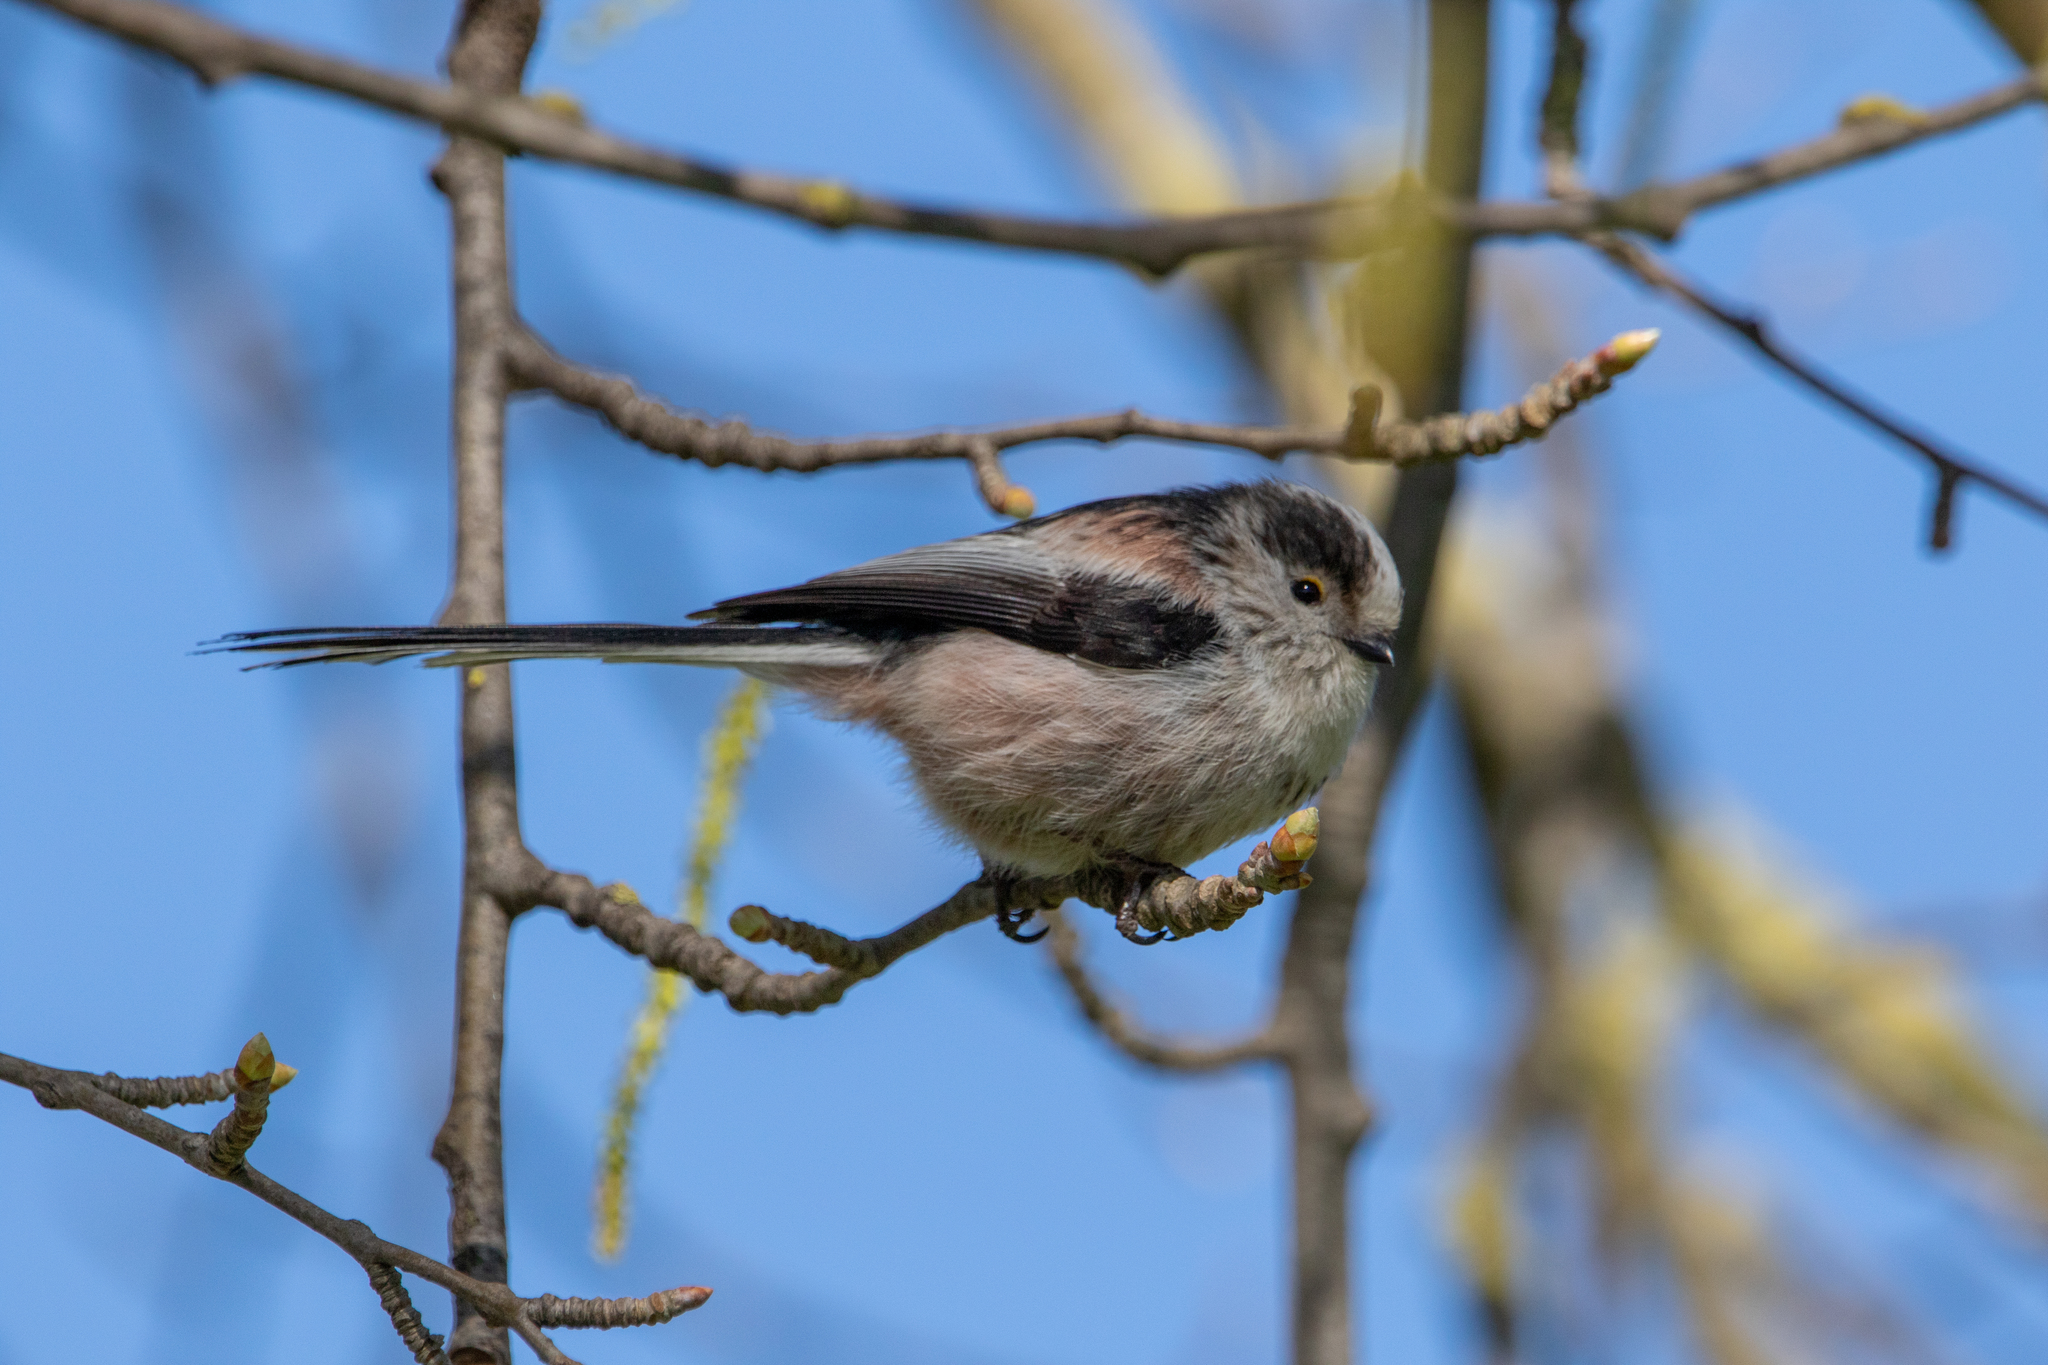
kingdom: Animalia
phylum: Chordata
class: Aves
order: Passeriformes
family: Aegithalidae
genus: Aegithalos
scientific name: Aegithalos caudatus
